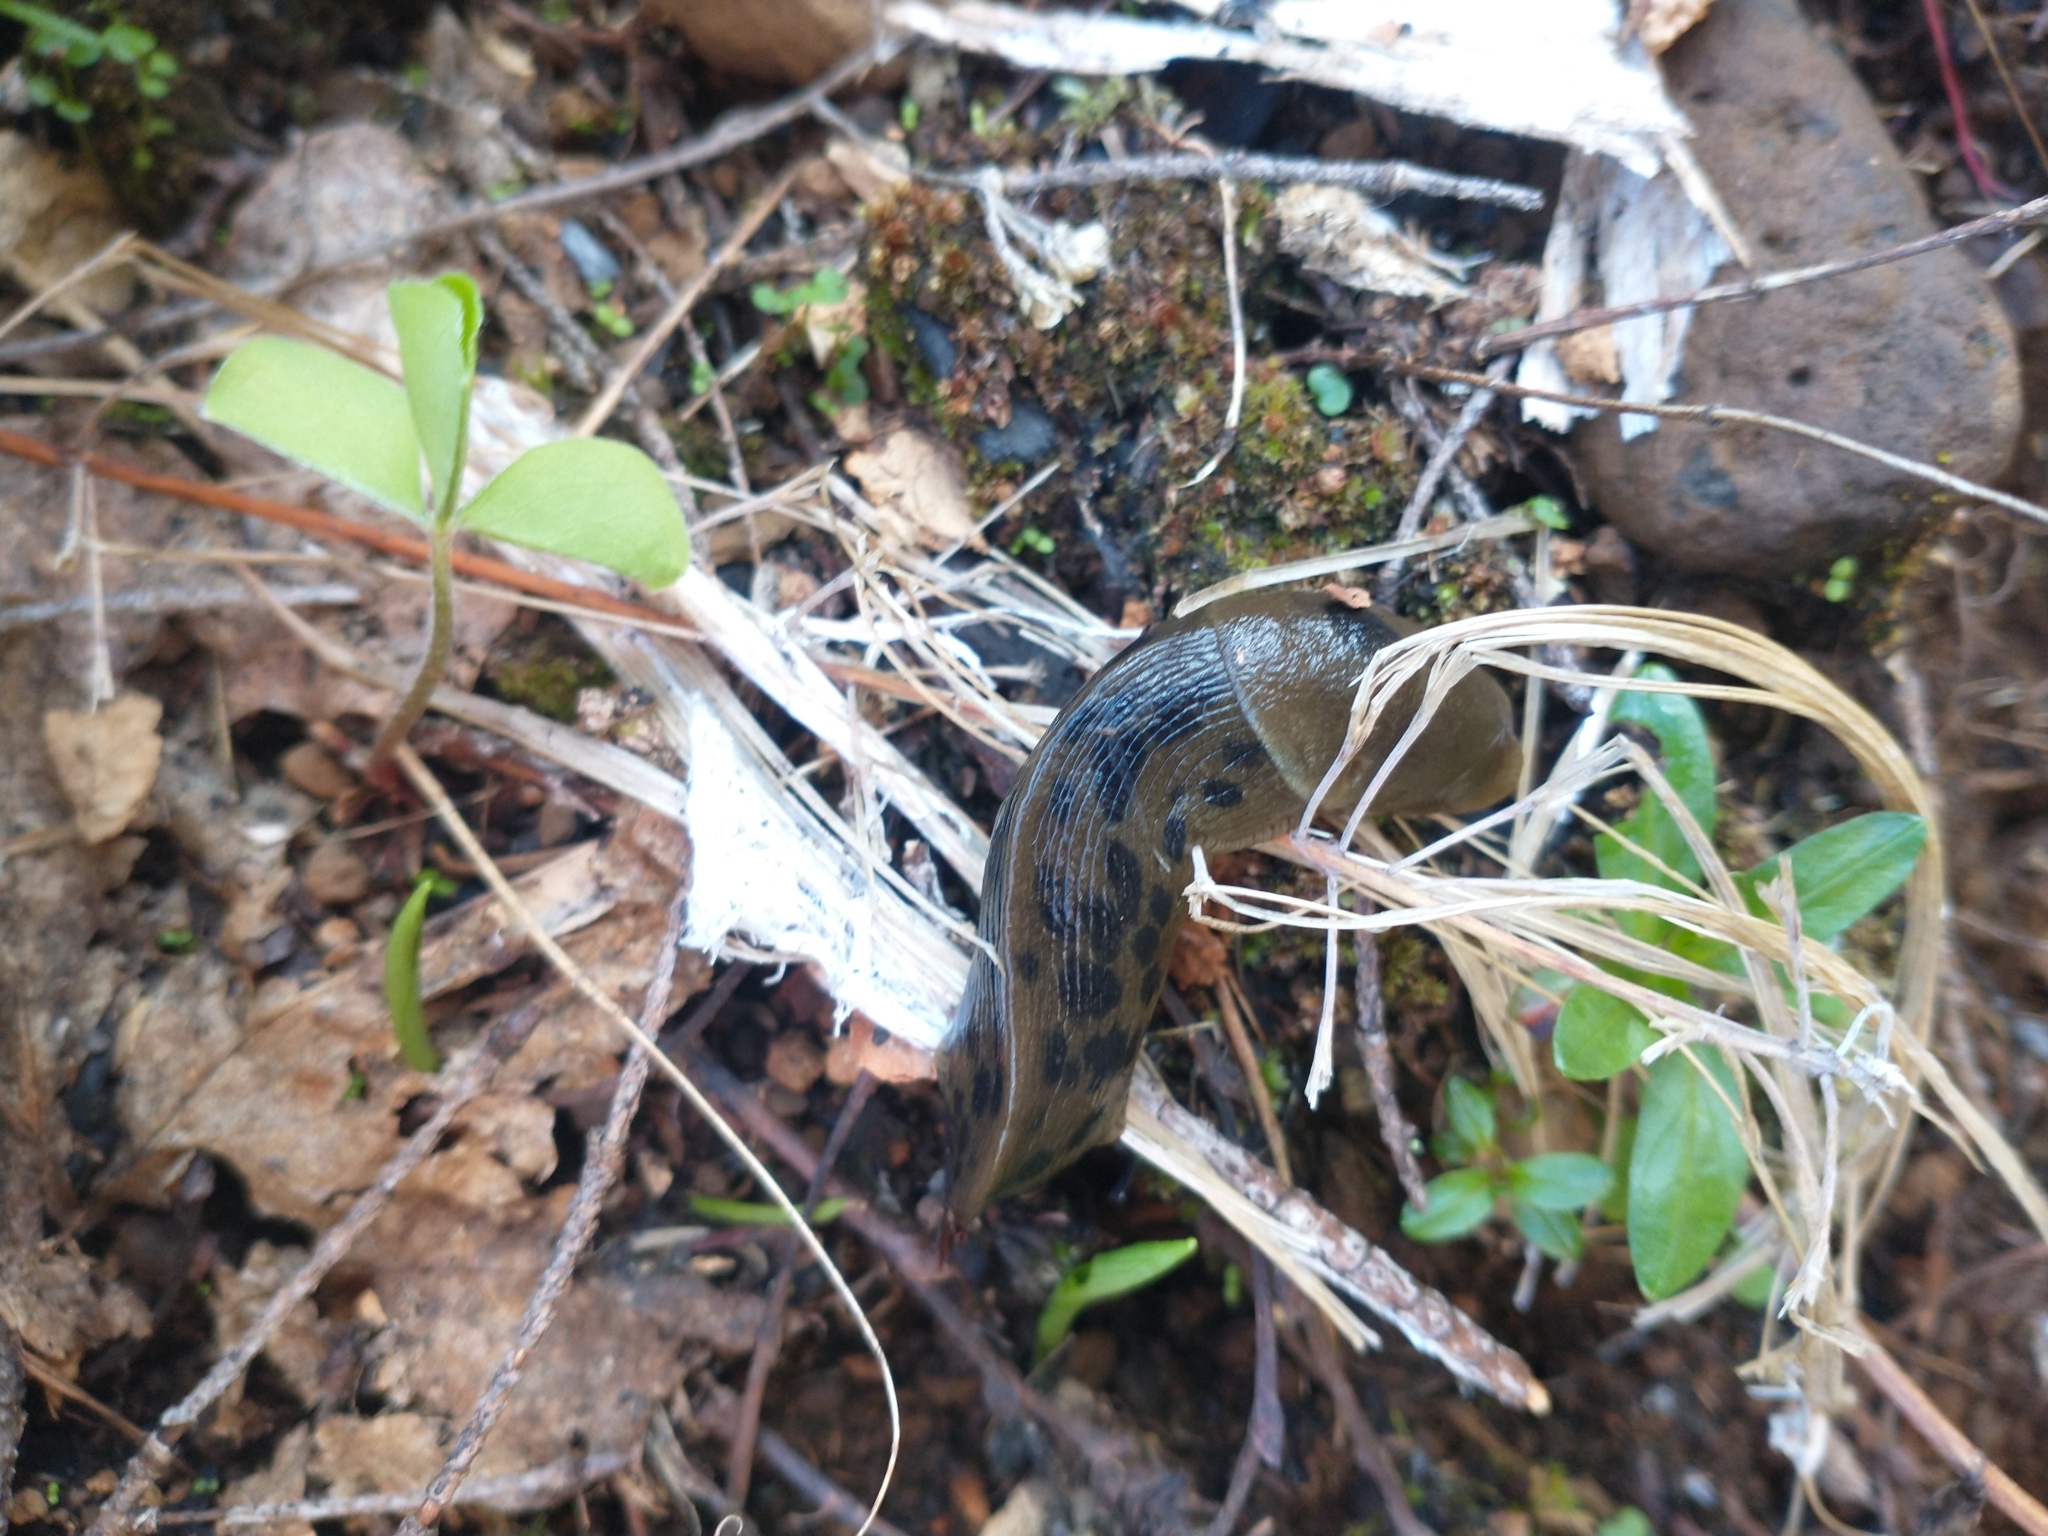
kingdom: Animalia
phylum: Mollusca
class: Gastropoda
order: Stylommatophora
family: Ariolimacidae
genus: Ariolimax
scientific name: Ariolimax columbianus
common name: Pacific banana slug
